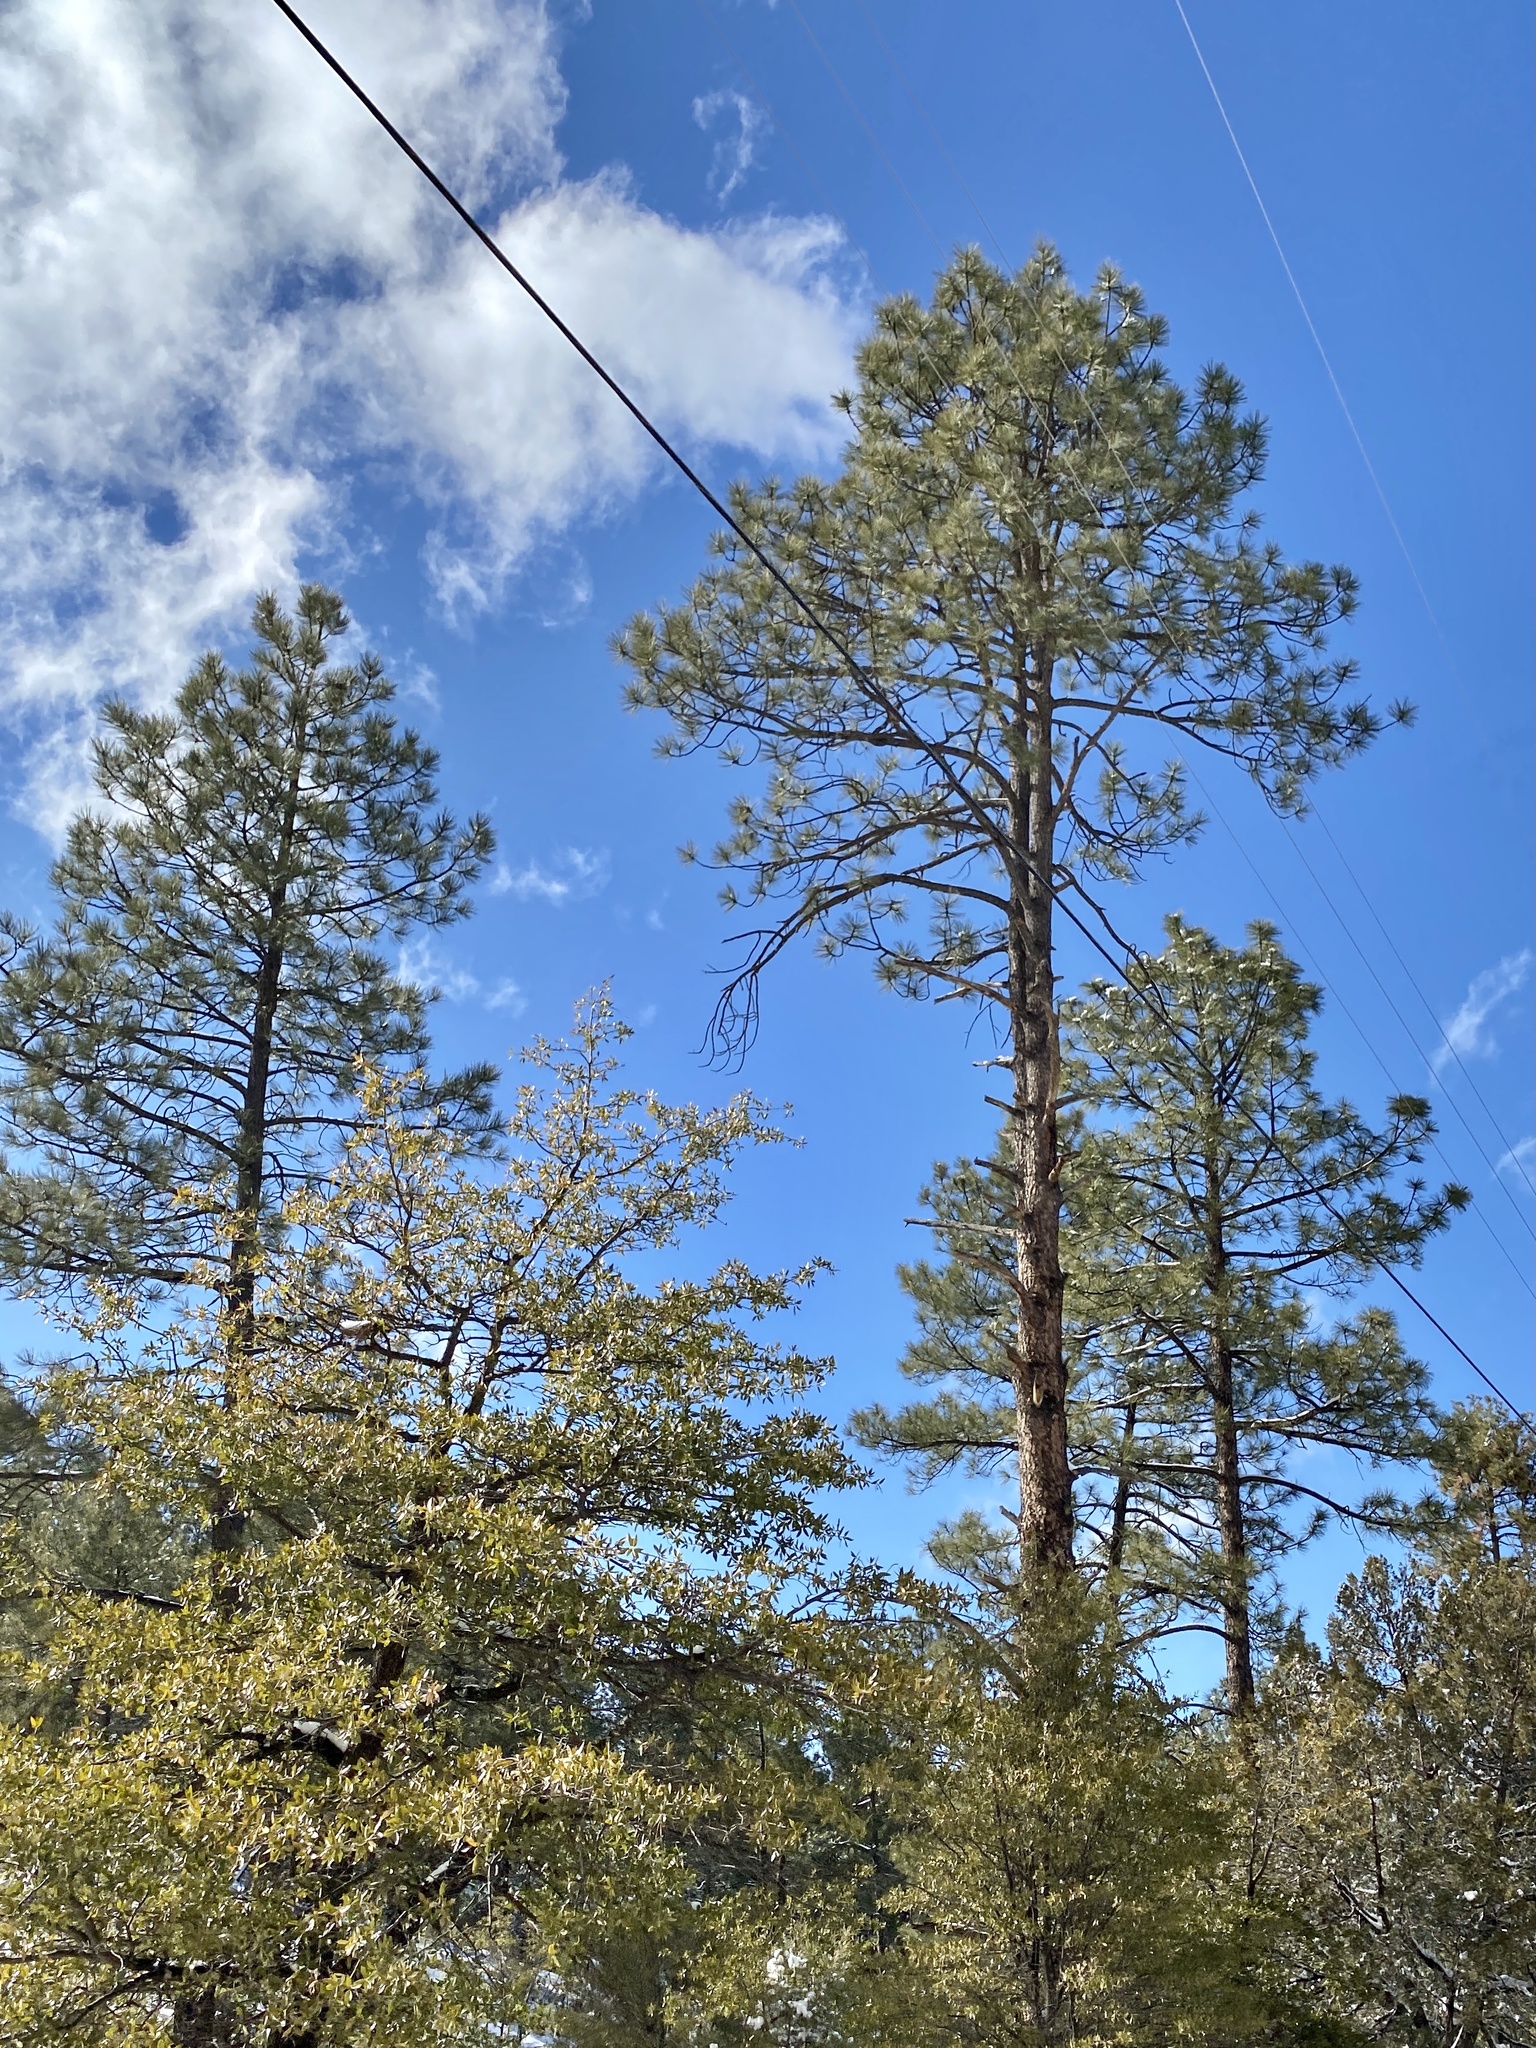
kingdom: Plantae
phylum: Tracheophyta
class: Pinopsida
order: Pinales
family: Pinaceae
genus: Pinus
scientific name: Pinus ponderosa
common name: Western yellow-pine
